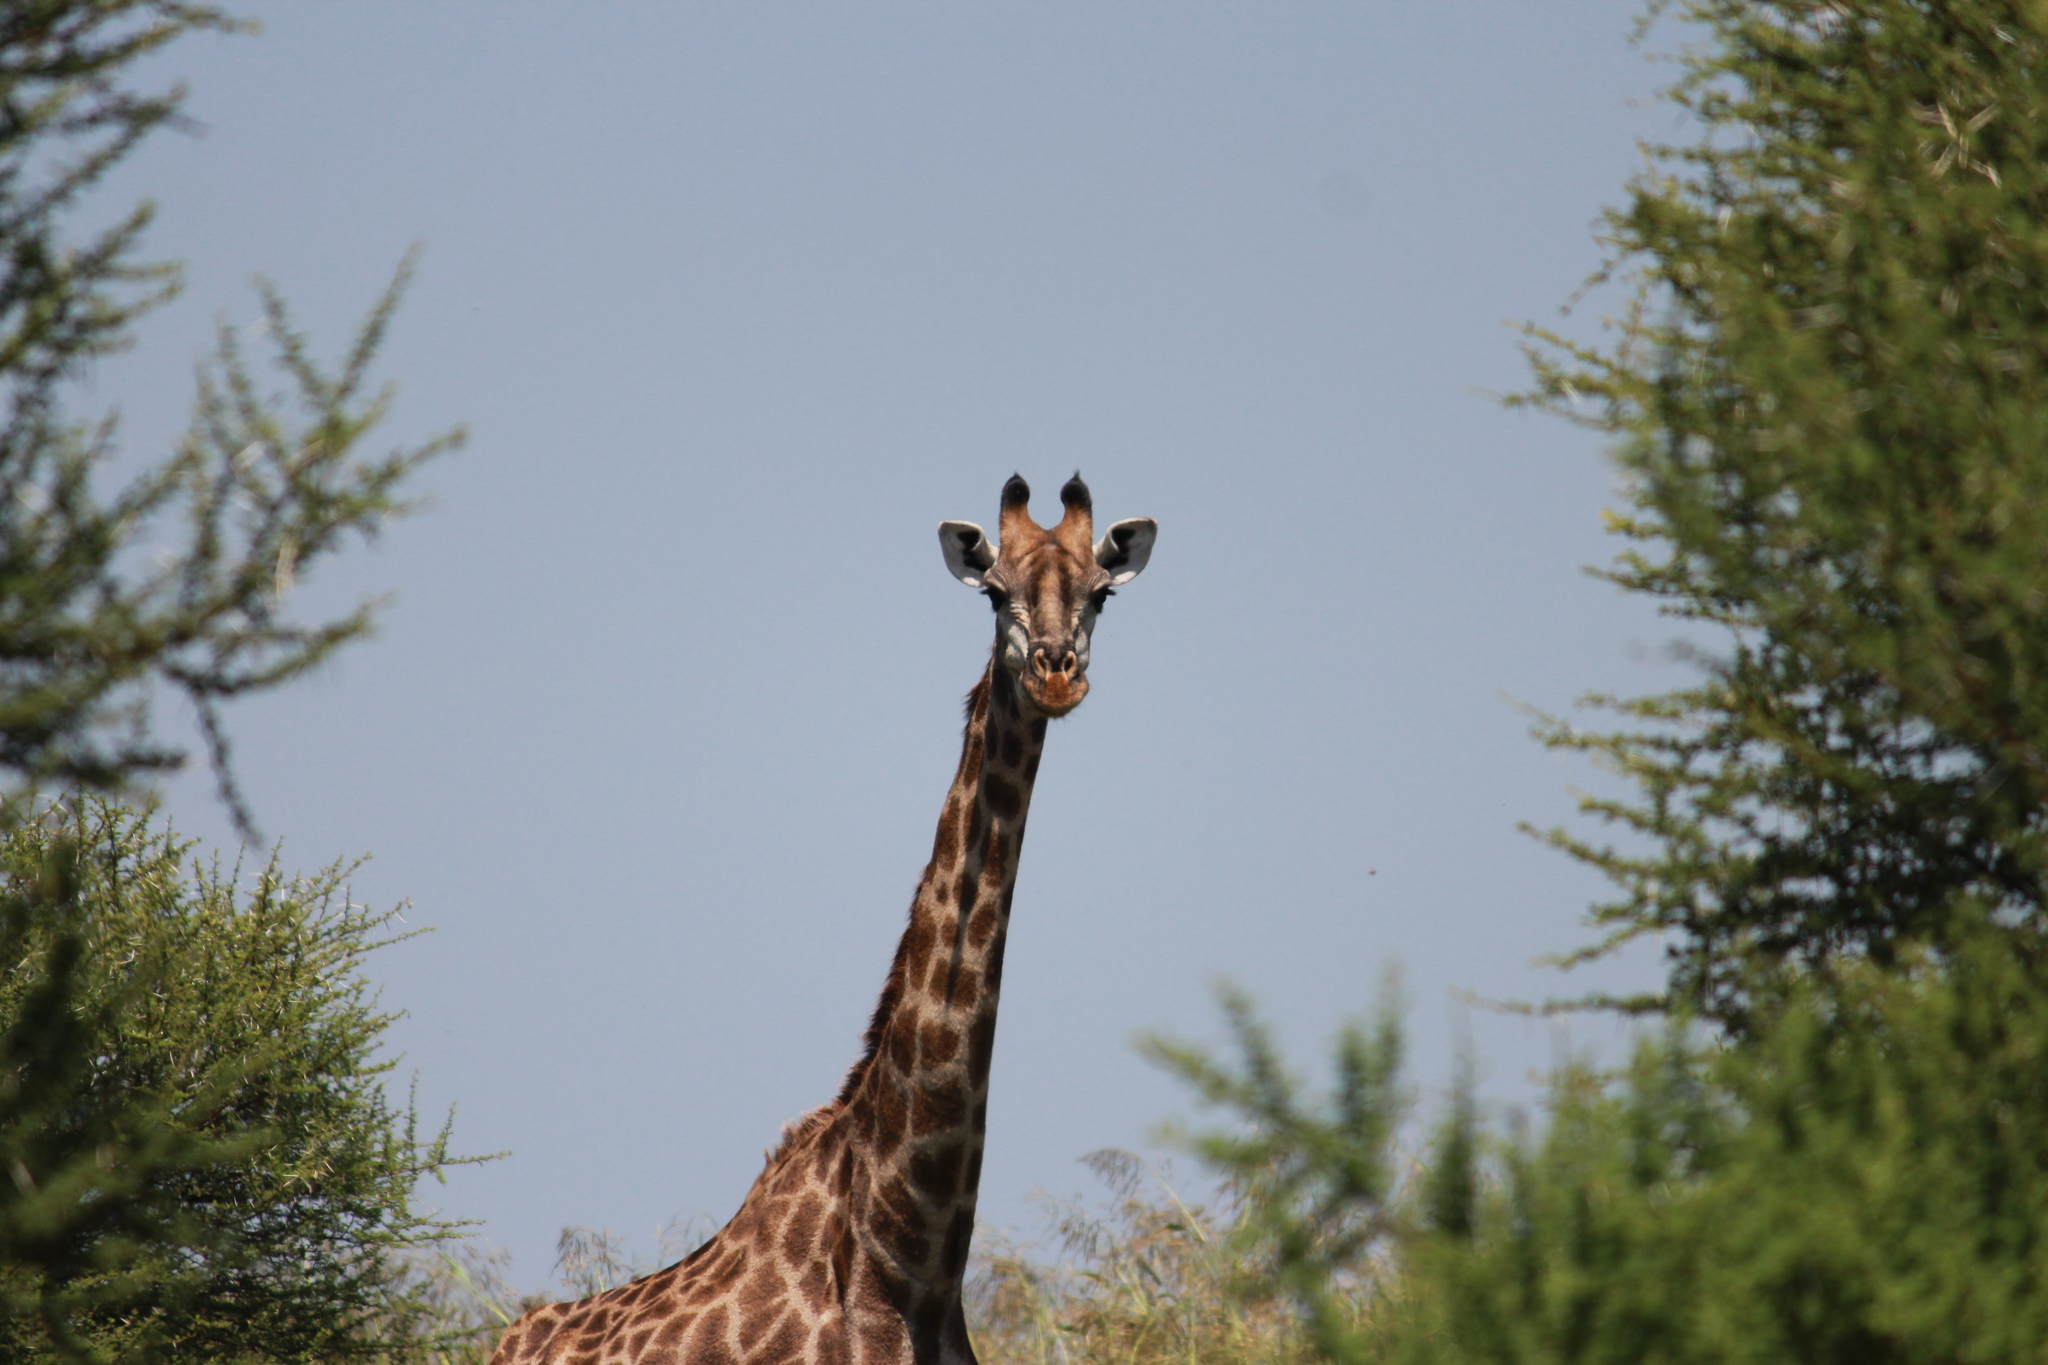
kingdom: Animalia
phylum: Chordata
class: Mammalia
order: Artiodactyla
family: Giraffidae
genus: Giraffa
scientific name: Giraffa giraffa
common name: Southern giraffe
